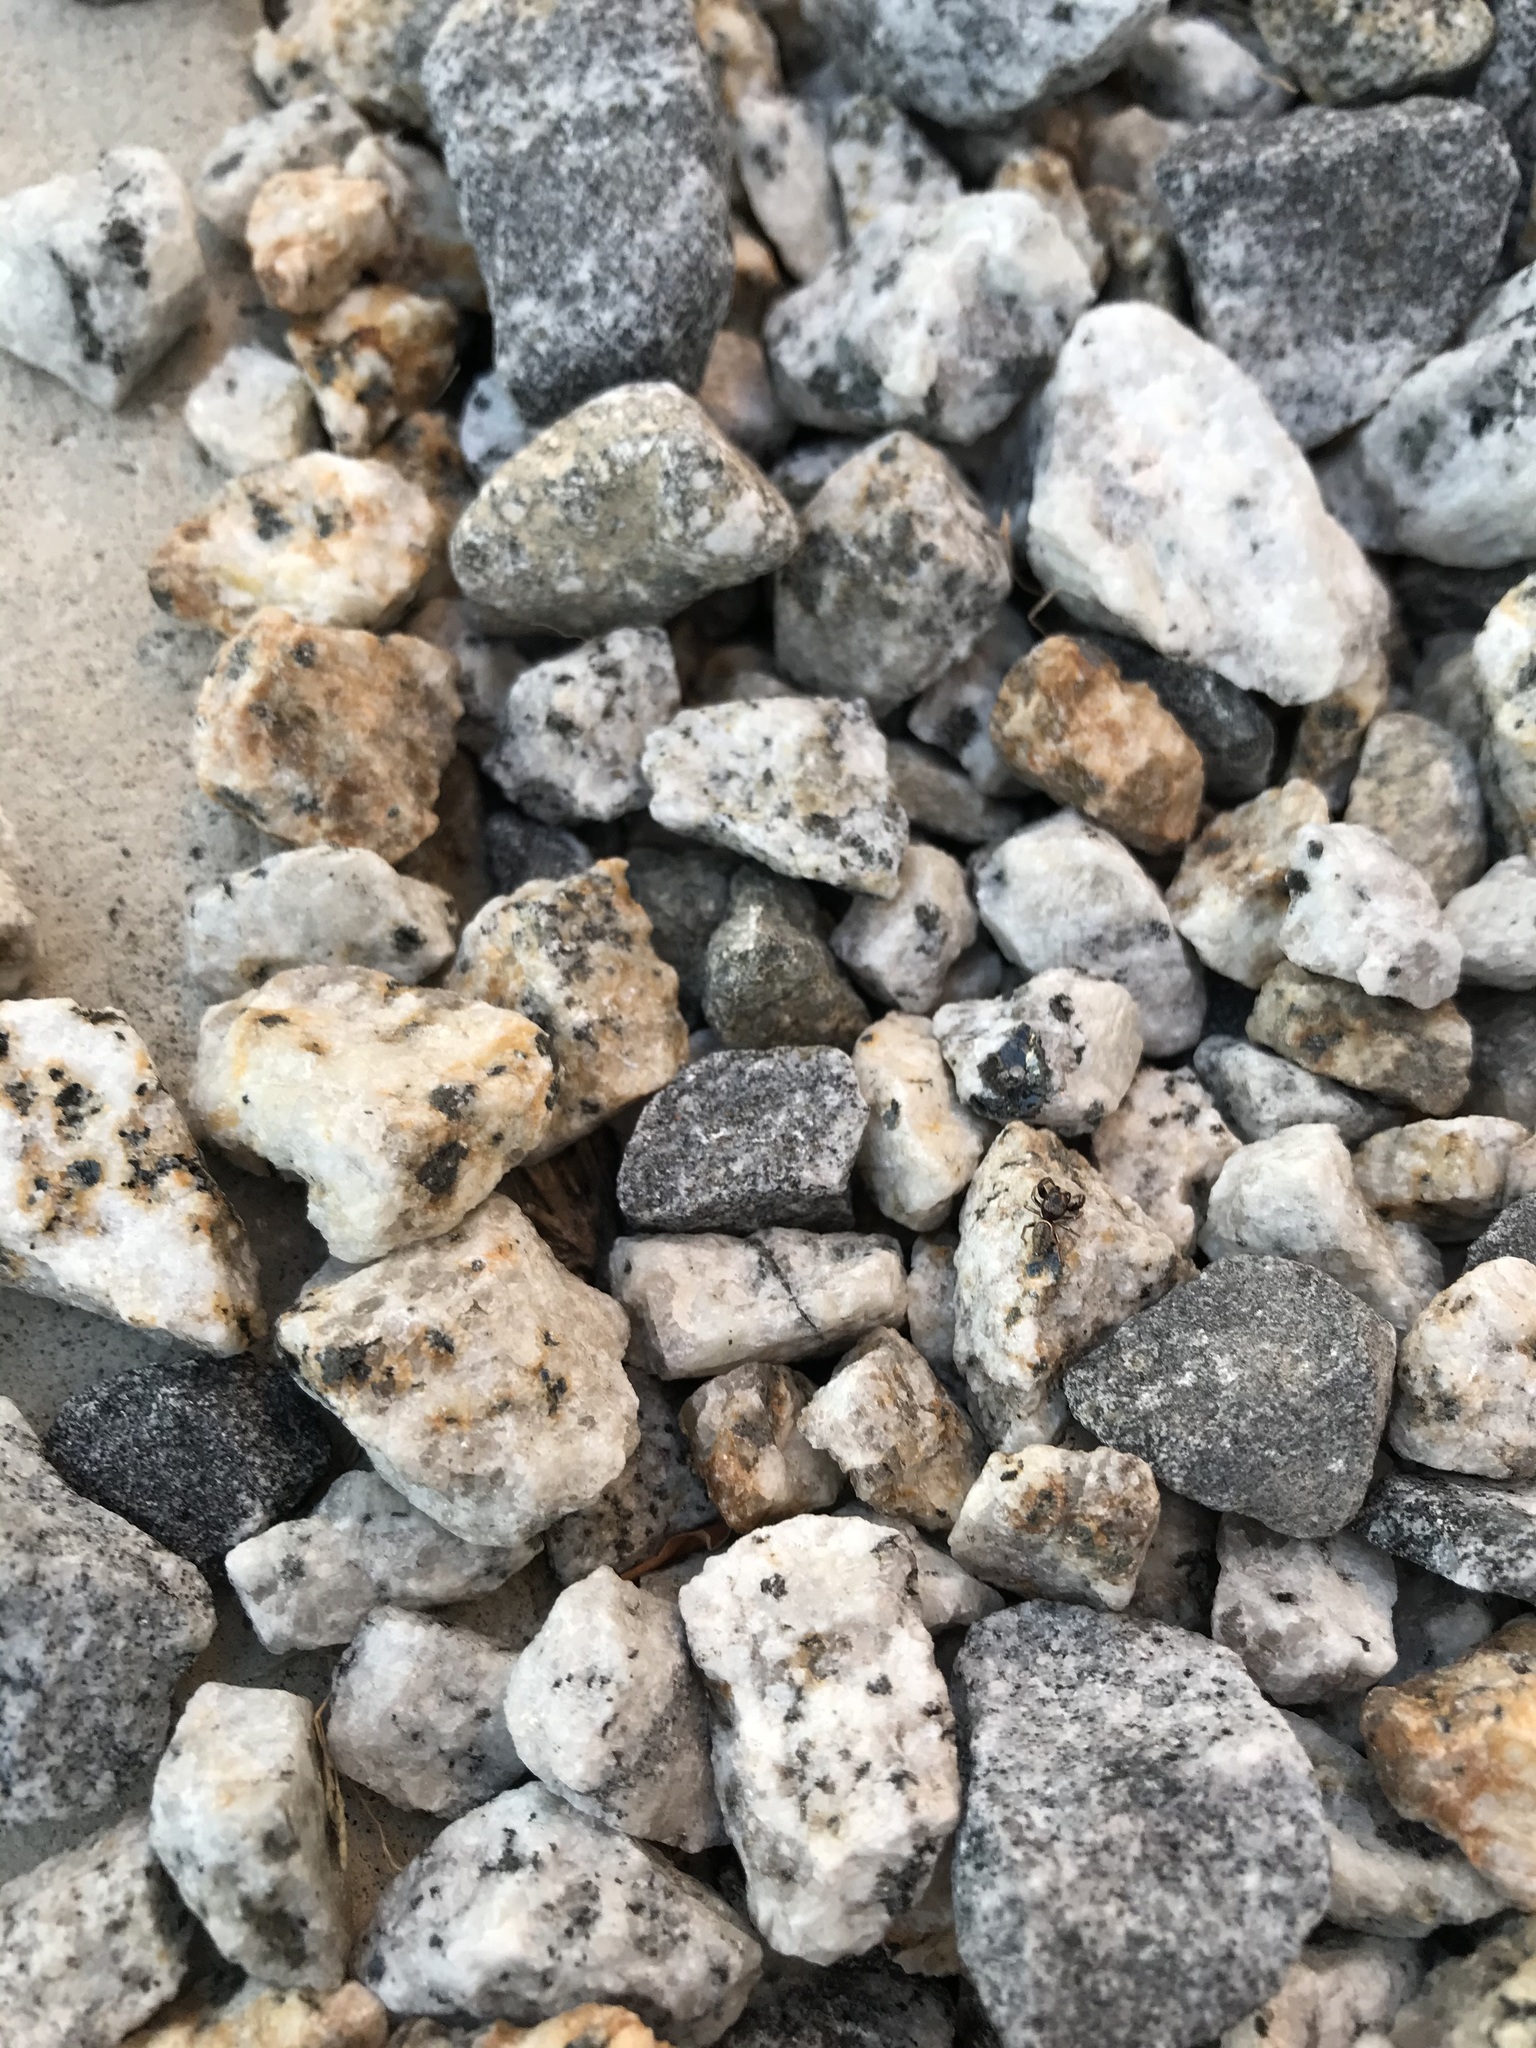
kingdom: Animalia
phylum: Arthropoda
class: Arachnida
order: Araneae
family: Salticidae
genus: Sassacus
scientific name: Sassacus vitis
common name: Jumping spiders
